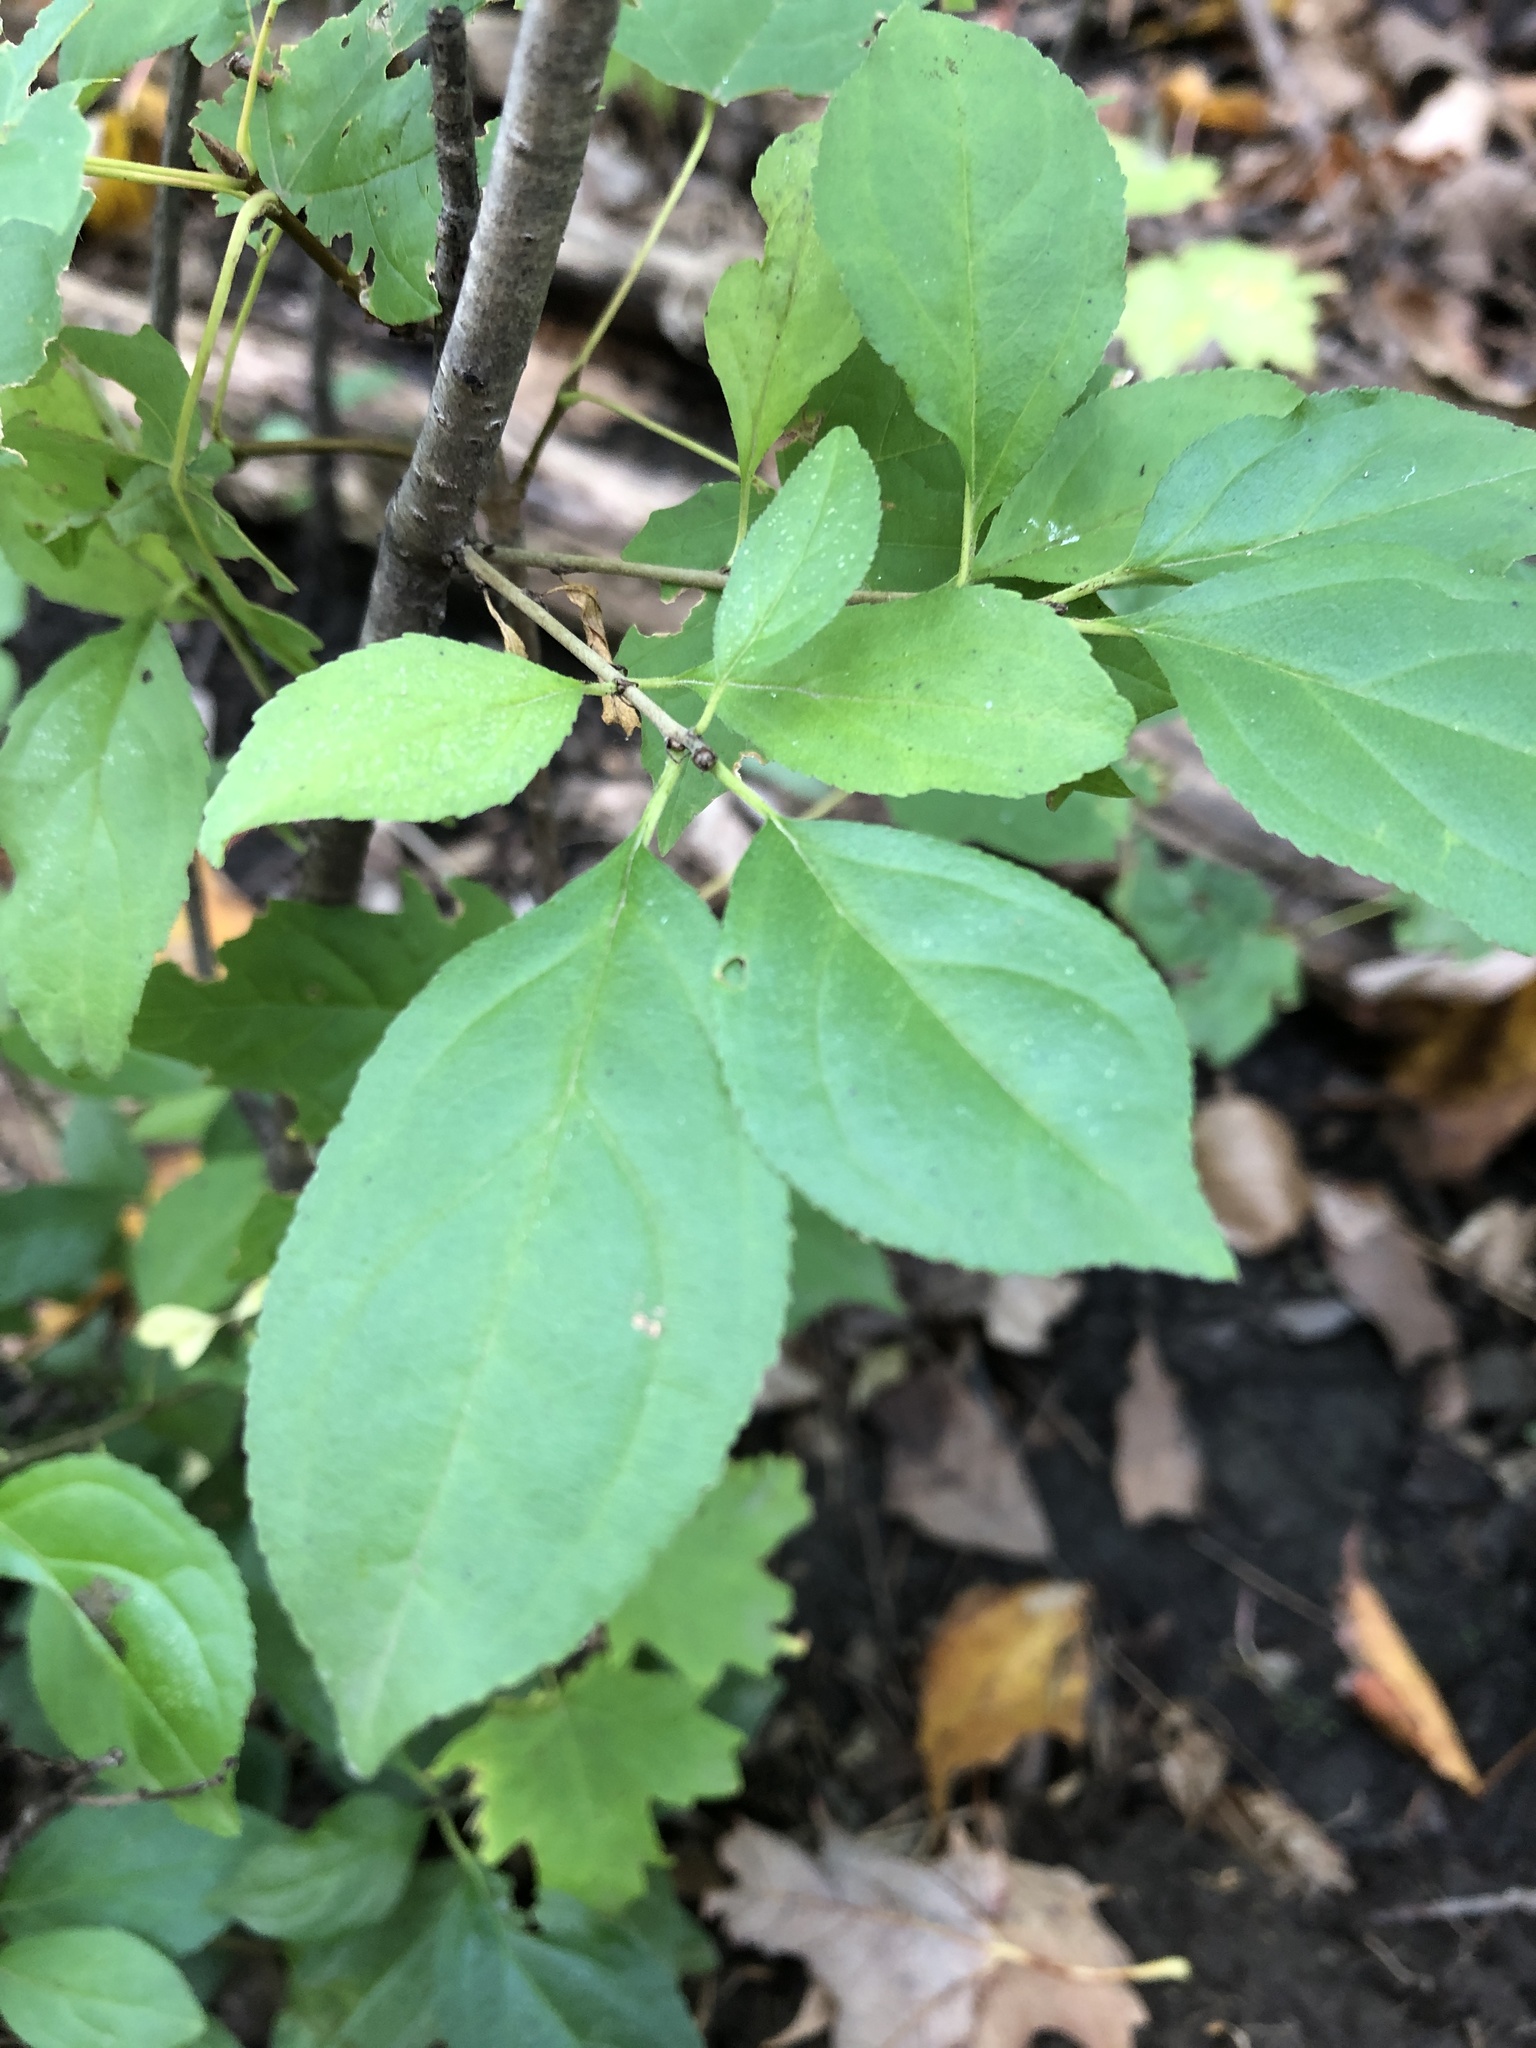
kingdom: Plantae
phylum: Tracheophyta
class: Magnoliopsida
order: Rosales
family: Rhamnaceae
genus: Rhamnus
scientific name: Rhamnus cathartica
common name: Common buckthorn
